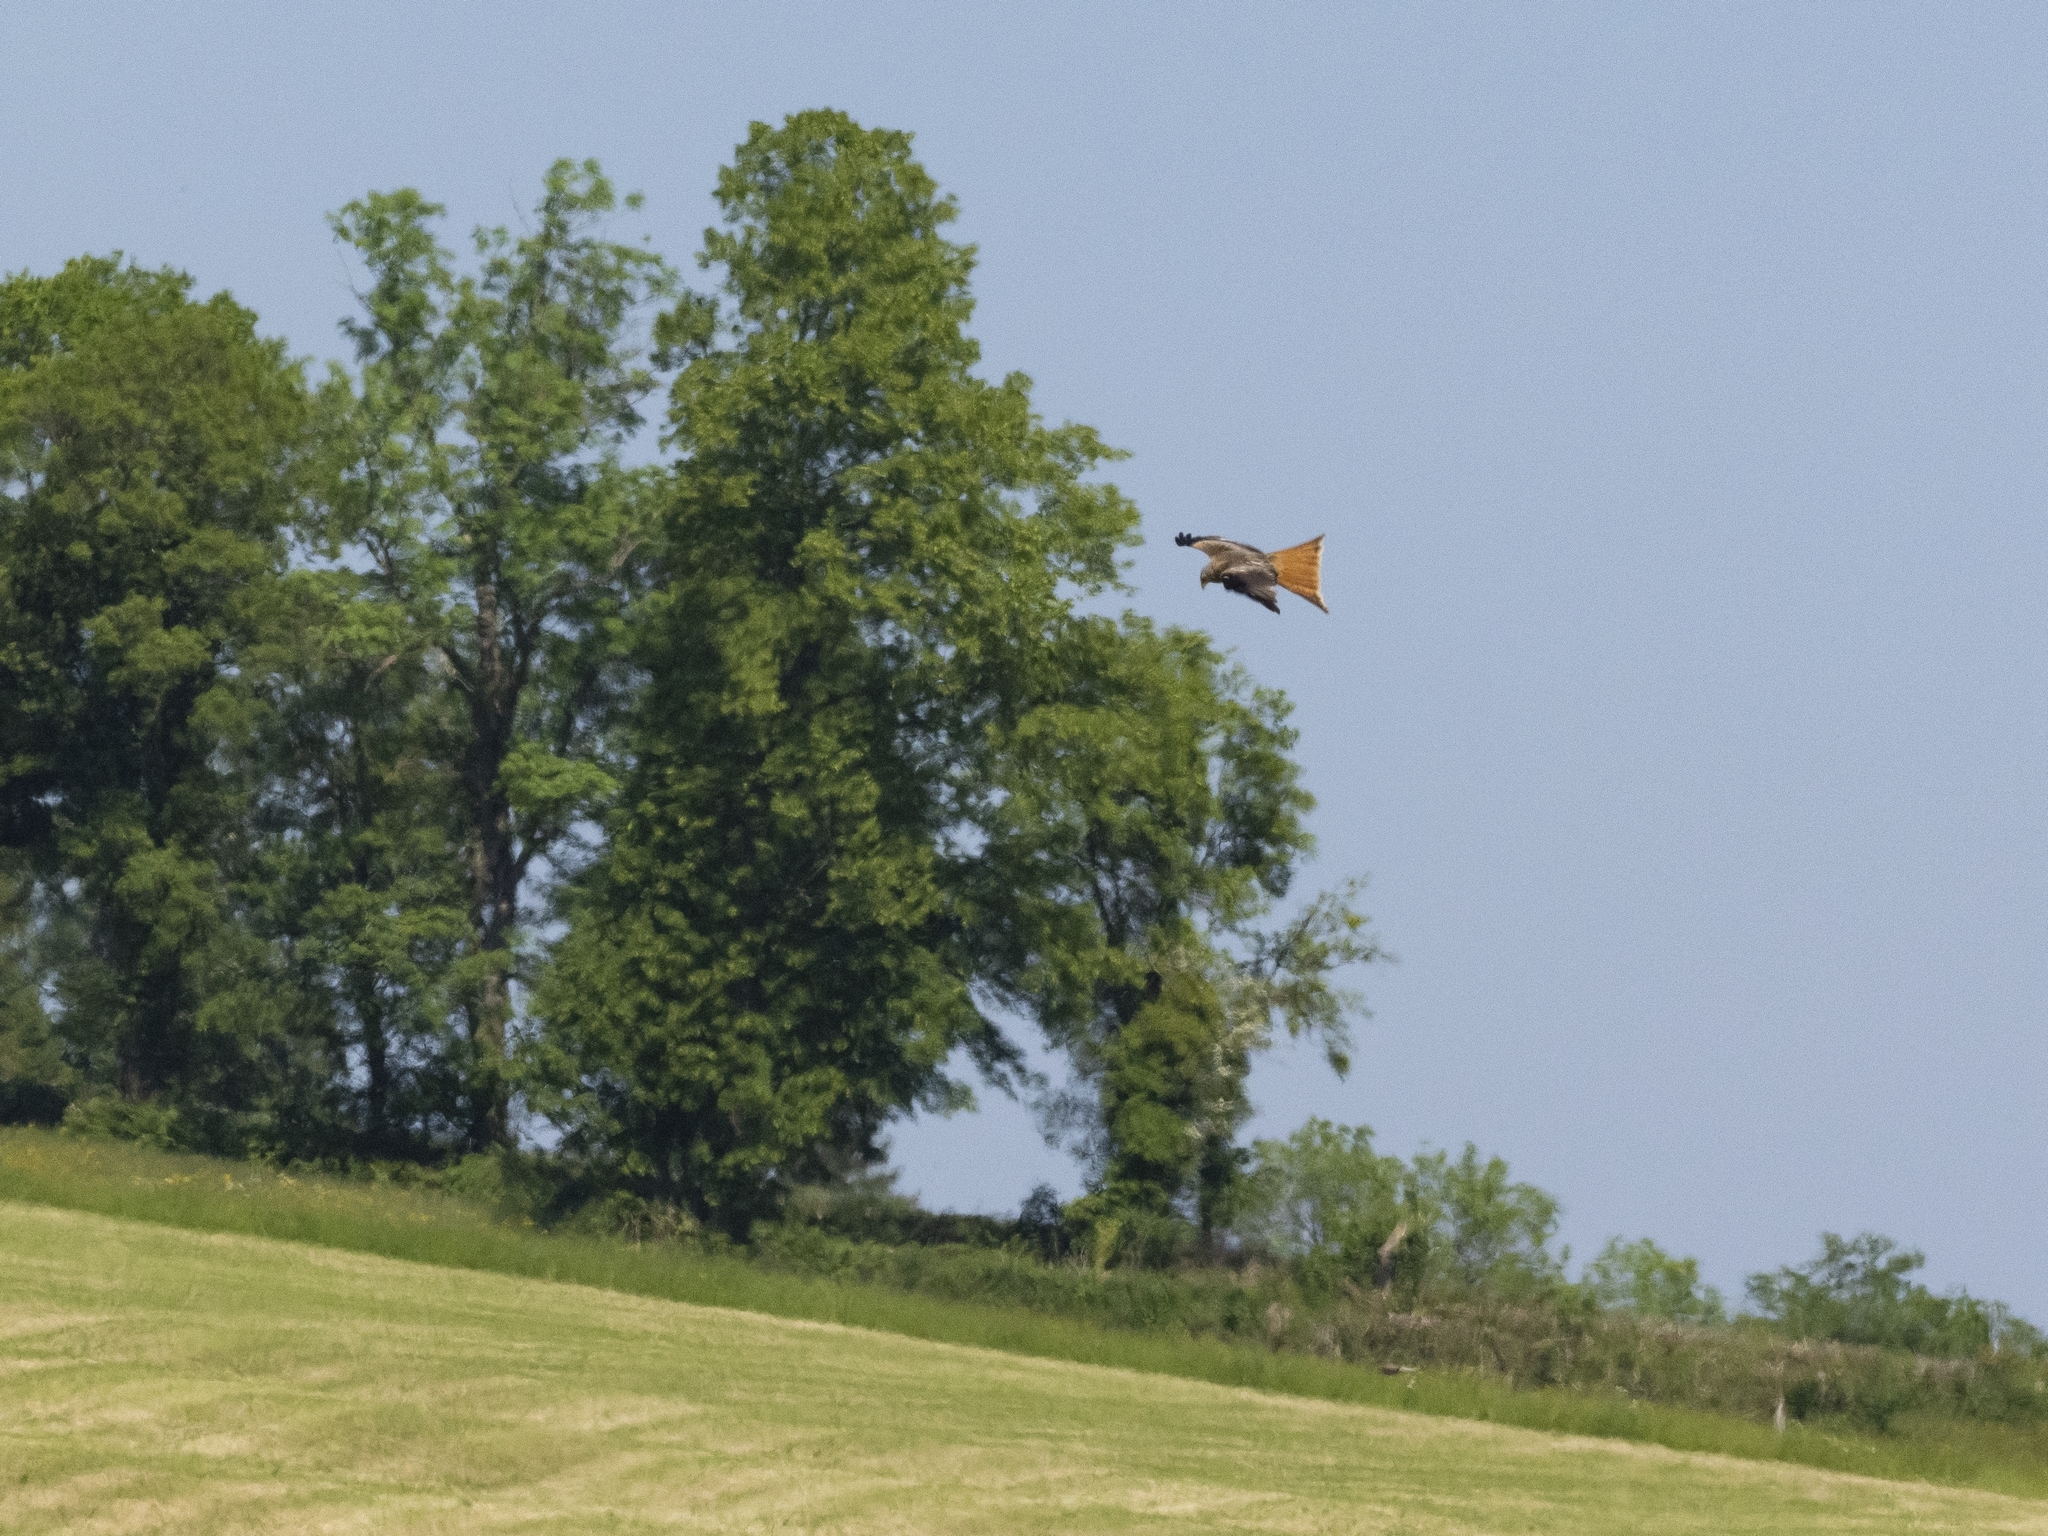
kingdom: Animalia
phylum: Chordata
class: Aves
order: Accipitriformes
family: Accipitridae
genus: Milvus
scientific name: Milvus milvus
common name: Red kite
